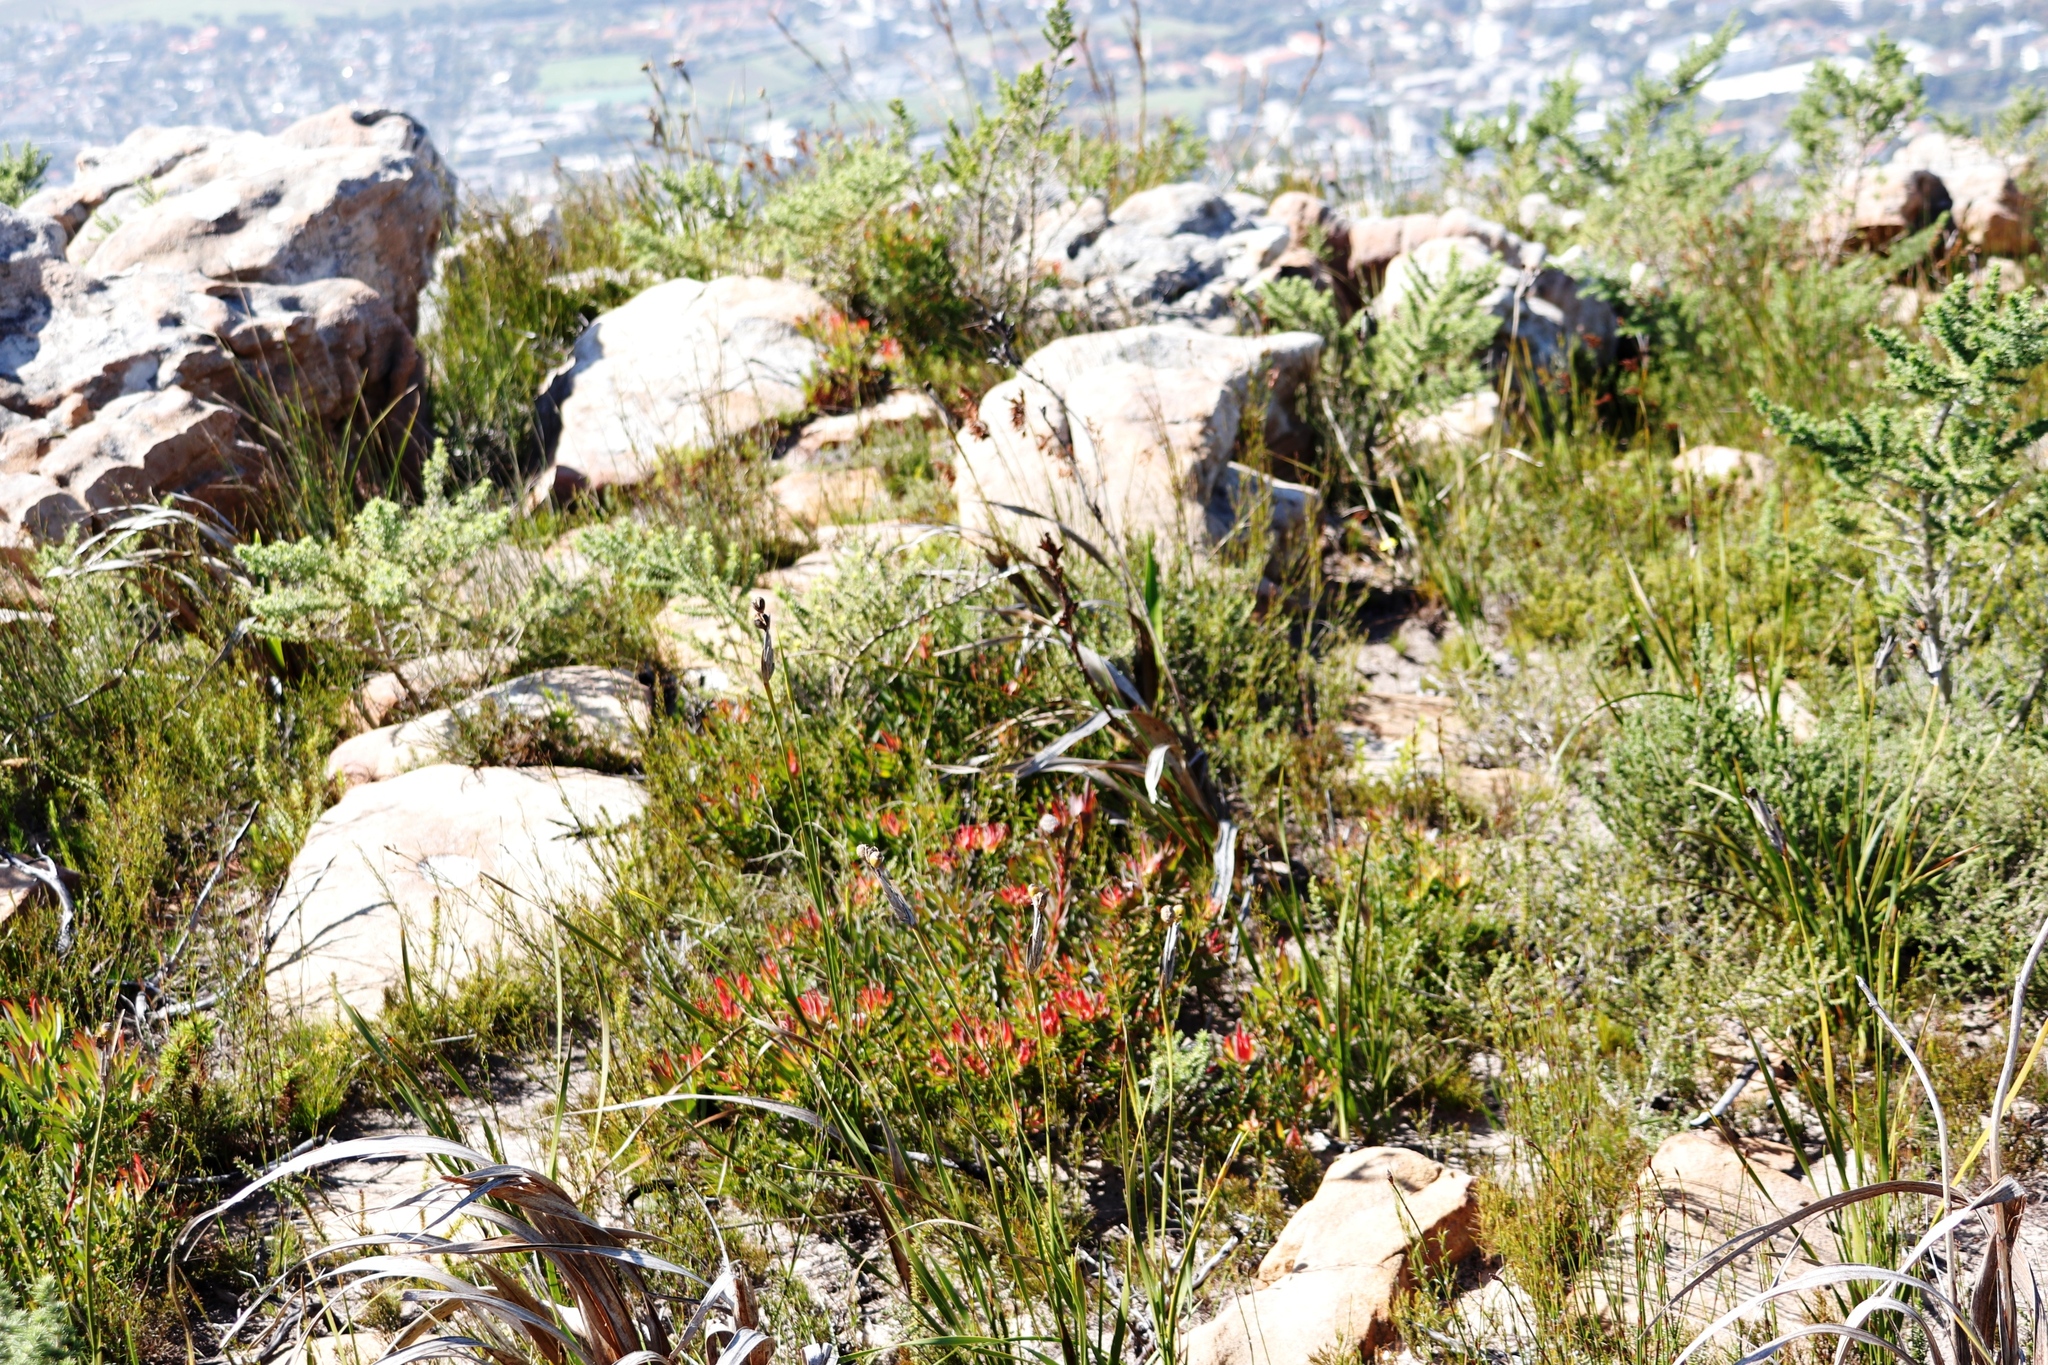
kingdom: Plantae
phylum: Tracheophyta
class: Magnoliopsida
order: Proteales
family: Proteaceae
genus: Leucadendron
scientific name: Leucadendron salignum
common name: Common sunshine conebush
